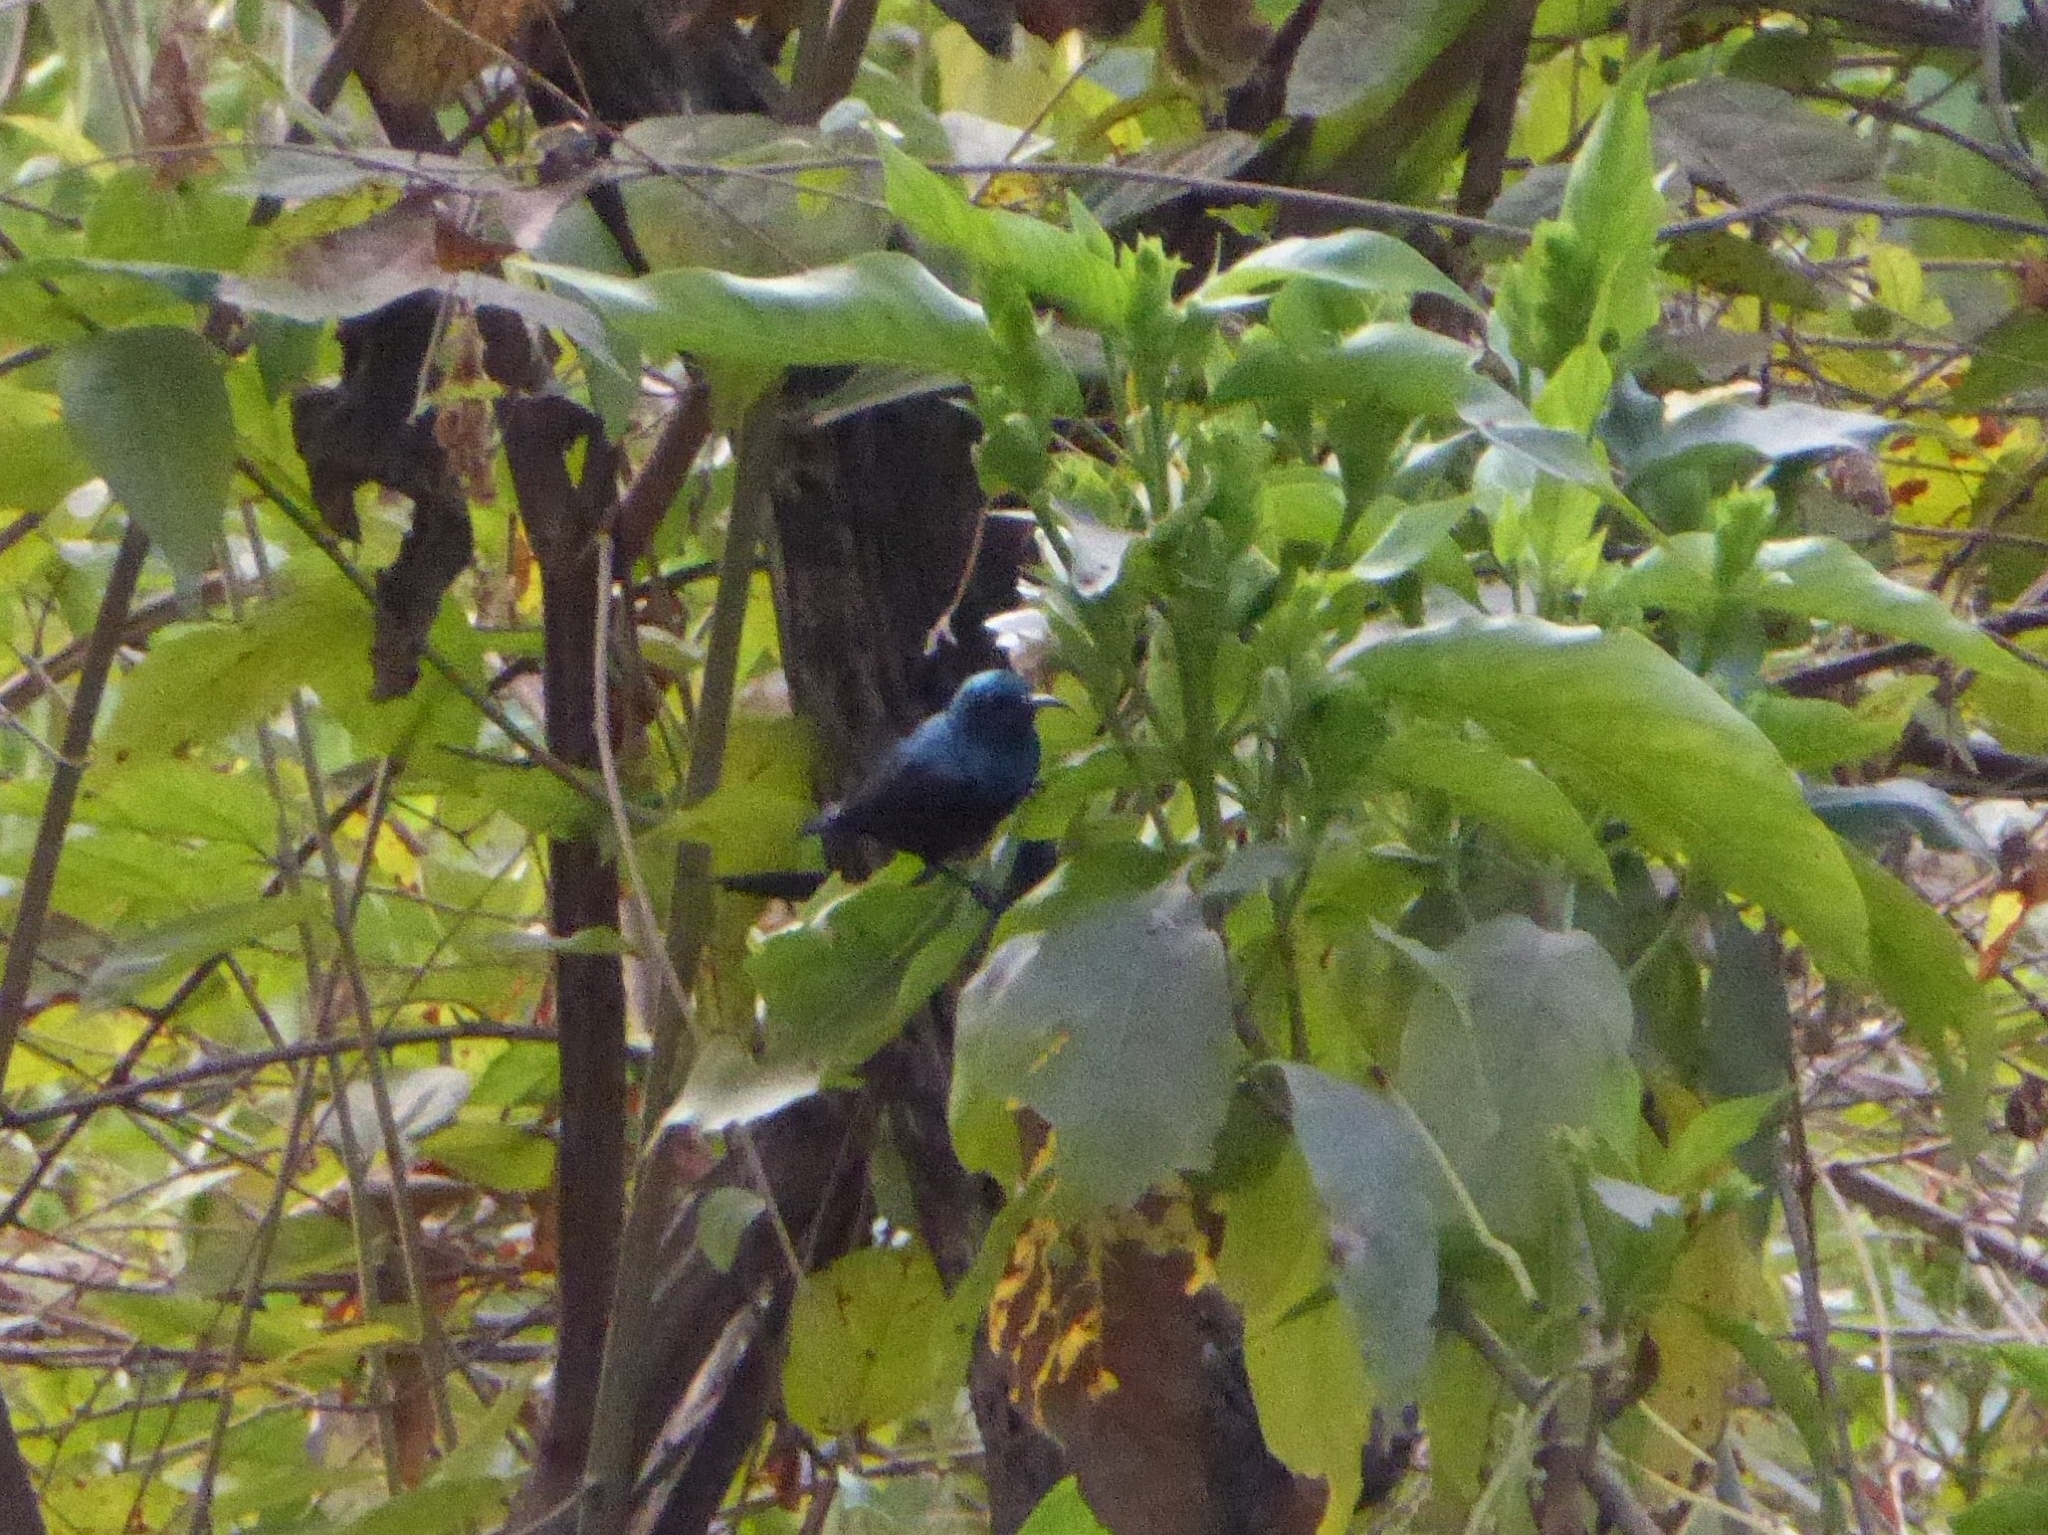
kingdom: Animalia
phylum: Chordata
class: Aves
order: Passeriformes
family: Nectariniidae
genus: Cinnyris
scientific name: Cinnyris asiaticus
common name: Purple sunbird
